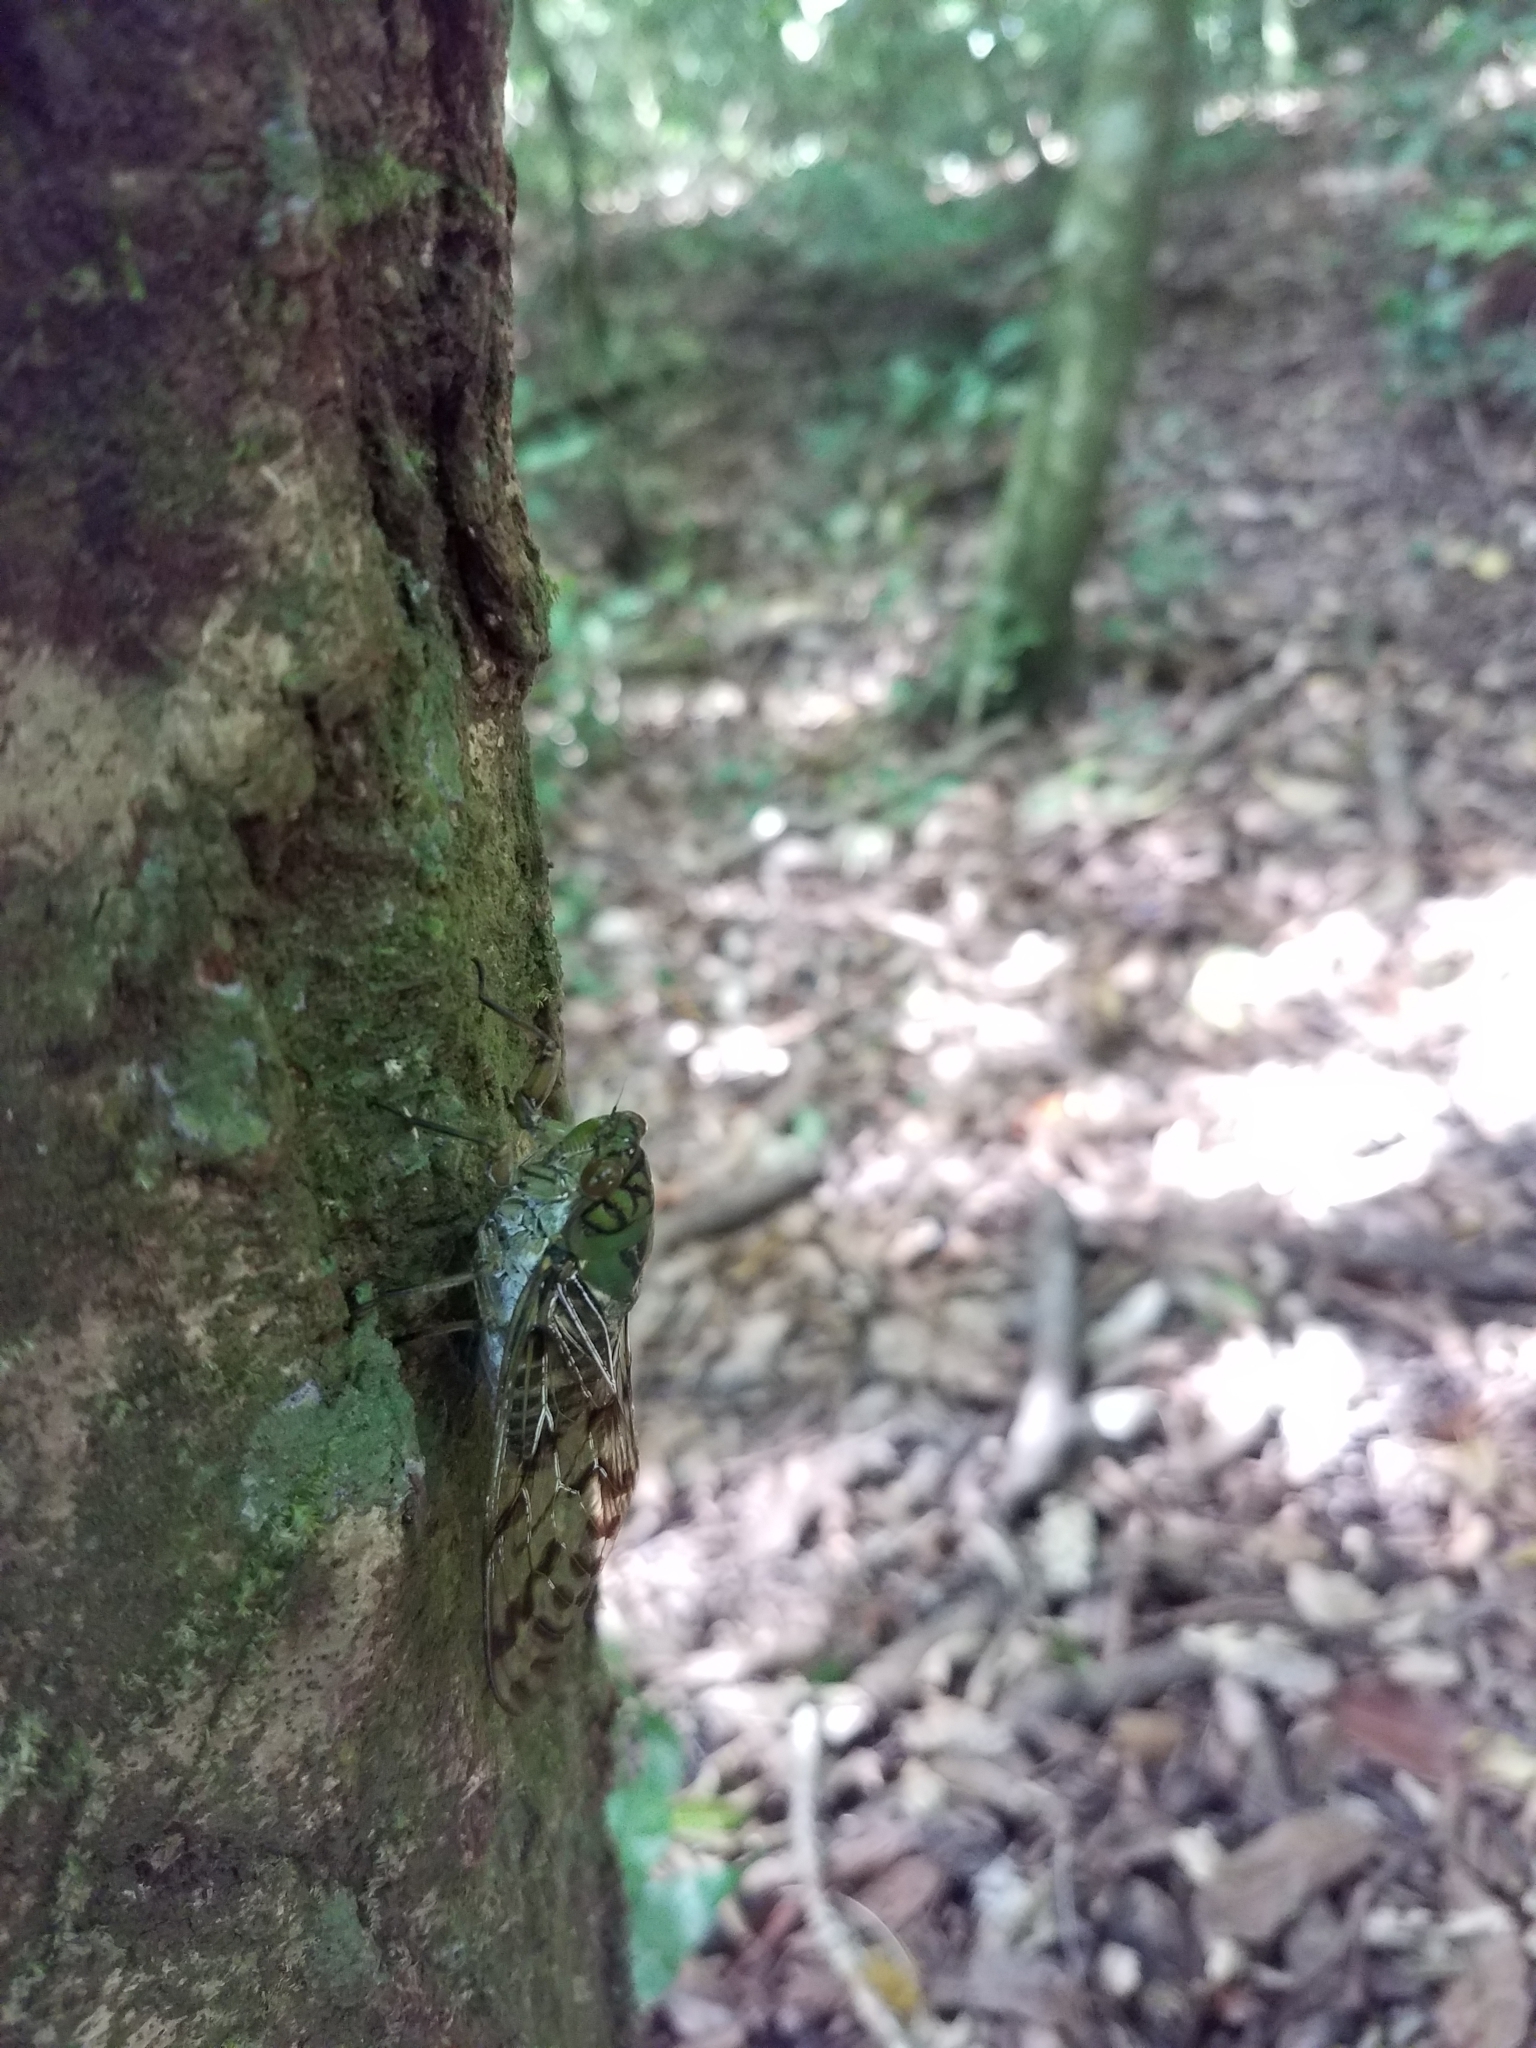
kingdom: Animalia
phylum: Arthropoda
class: Insecta
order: Hemiptera
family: Cicadidae
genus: Miranha
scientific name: Miranha imbellis
